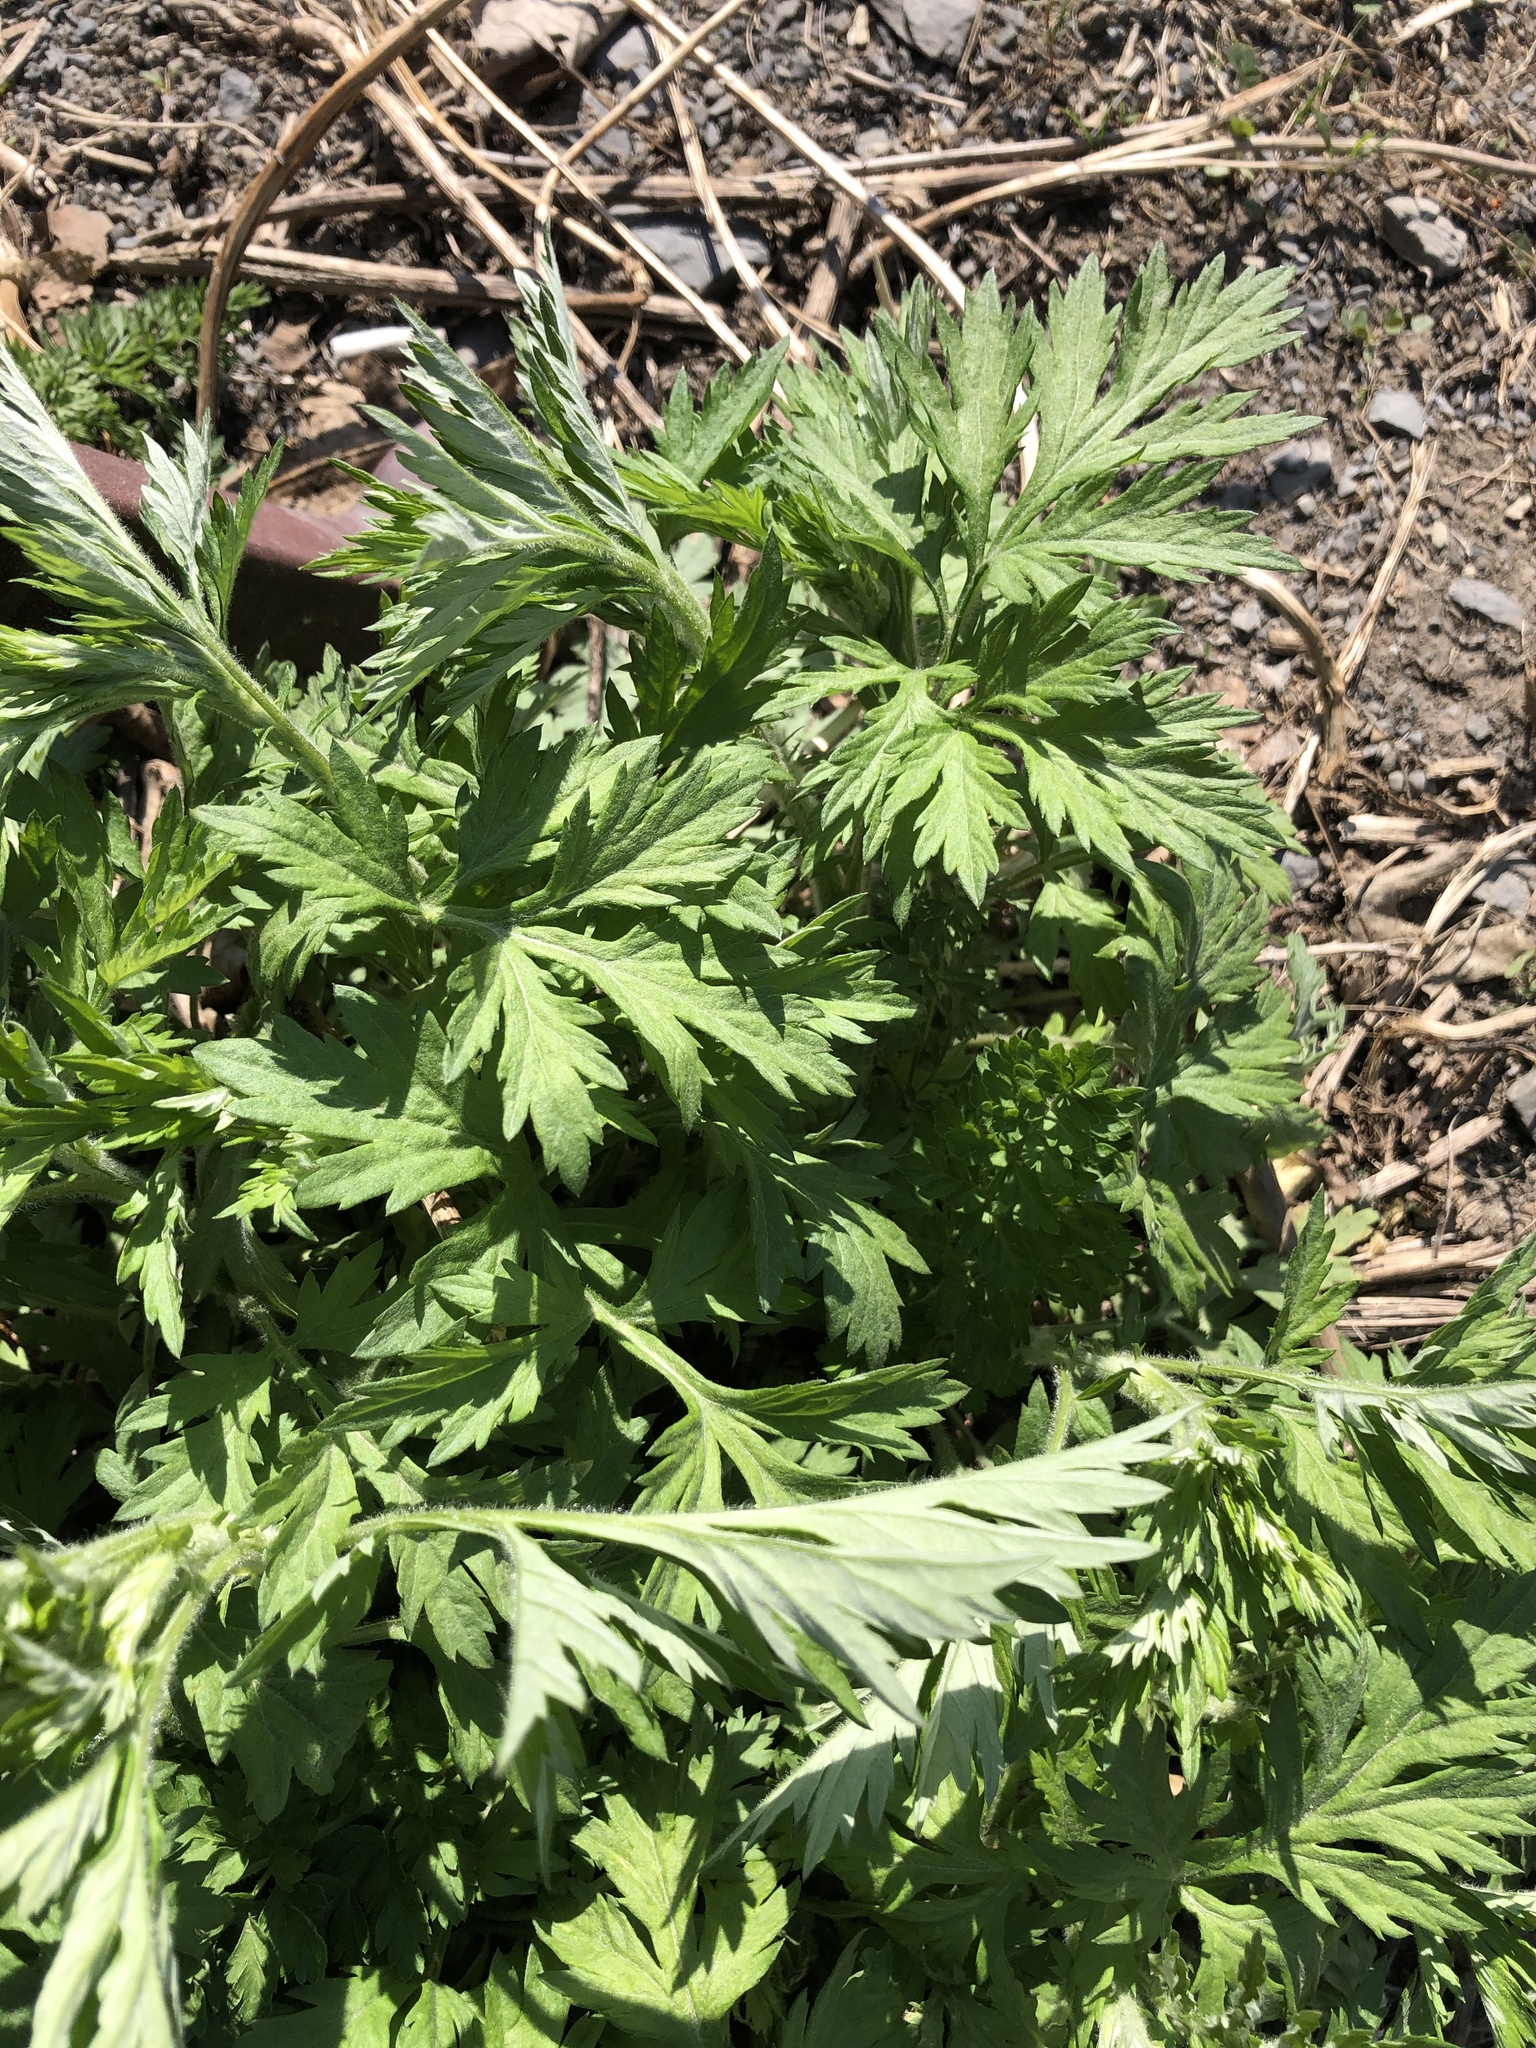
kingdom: Plantae
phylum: Tracheophyta
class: Magnoliopsida
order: Asterales
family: Asteraceae
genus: Artemisia
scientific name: Artemisia vulgaris
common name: Mugwort
